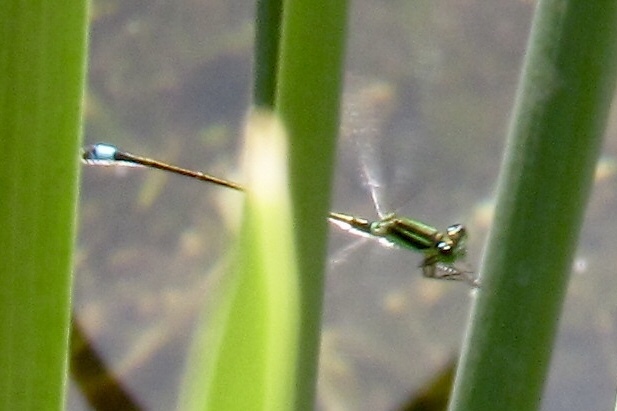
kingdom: Animalia
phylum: Arthropoda
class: Insecta
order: Odonata
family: Coenagrionidae
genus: Ischnura
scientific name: Ischnura ramburii
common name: Rambur's forktail
